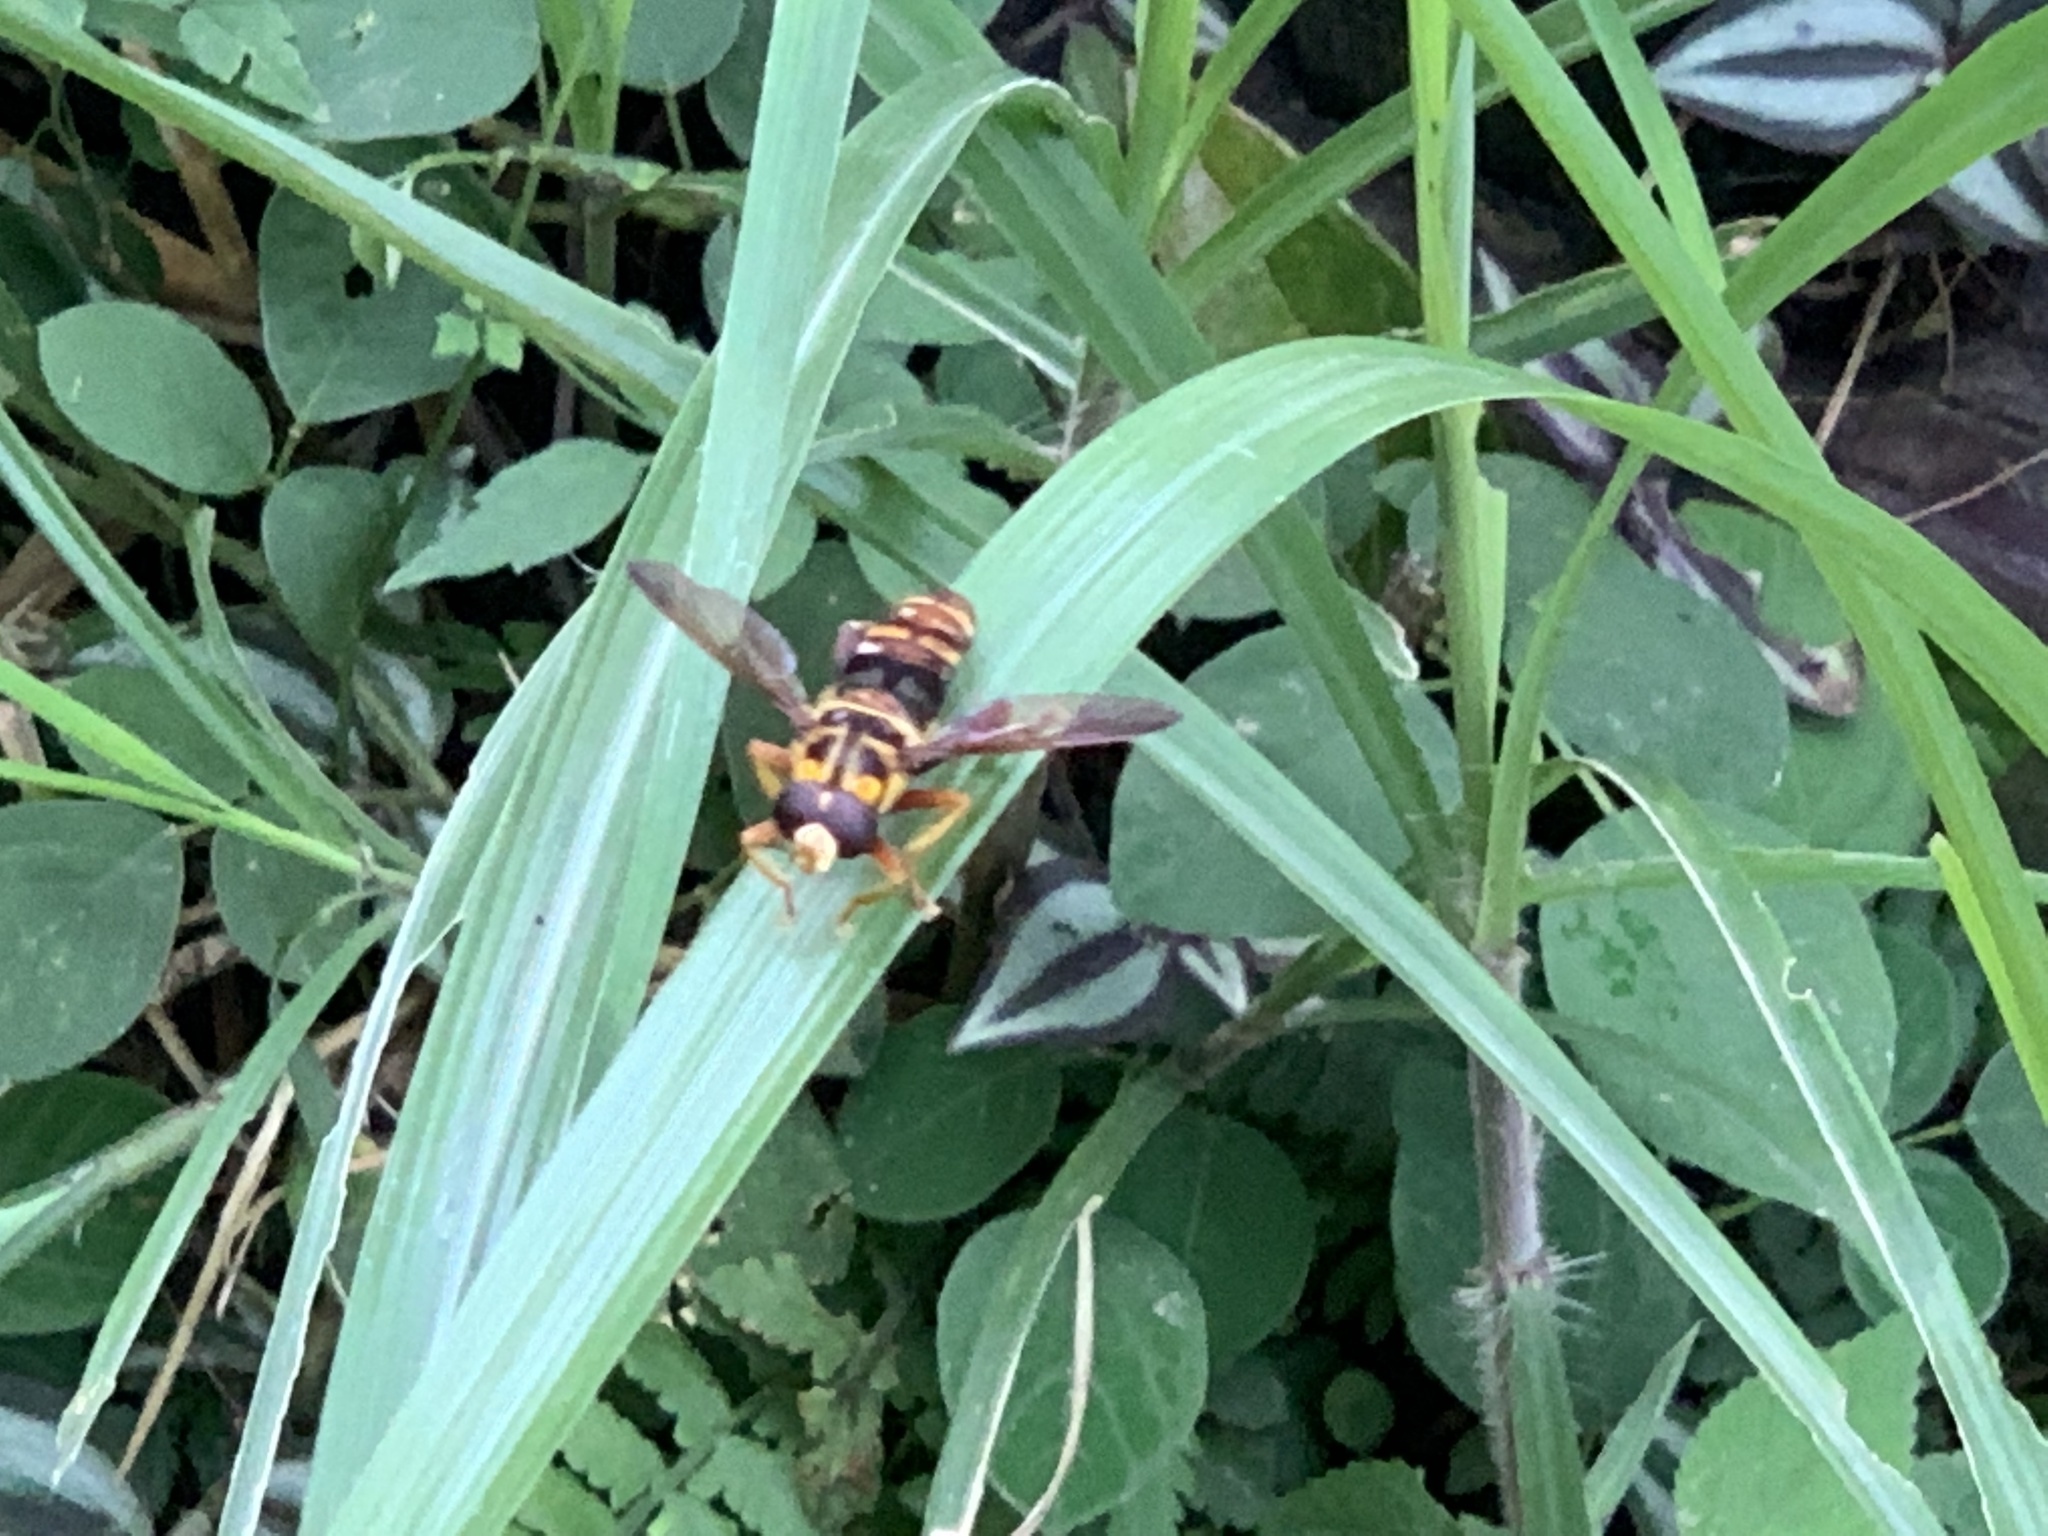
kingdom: Animalia
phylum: Arthropoda
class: Insecta
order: Diptera
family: Syrphidae
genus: Milesia
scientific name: Milesia fissipennis
